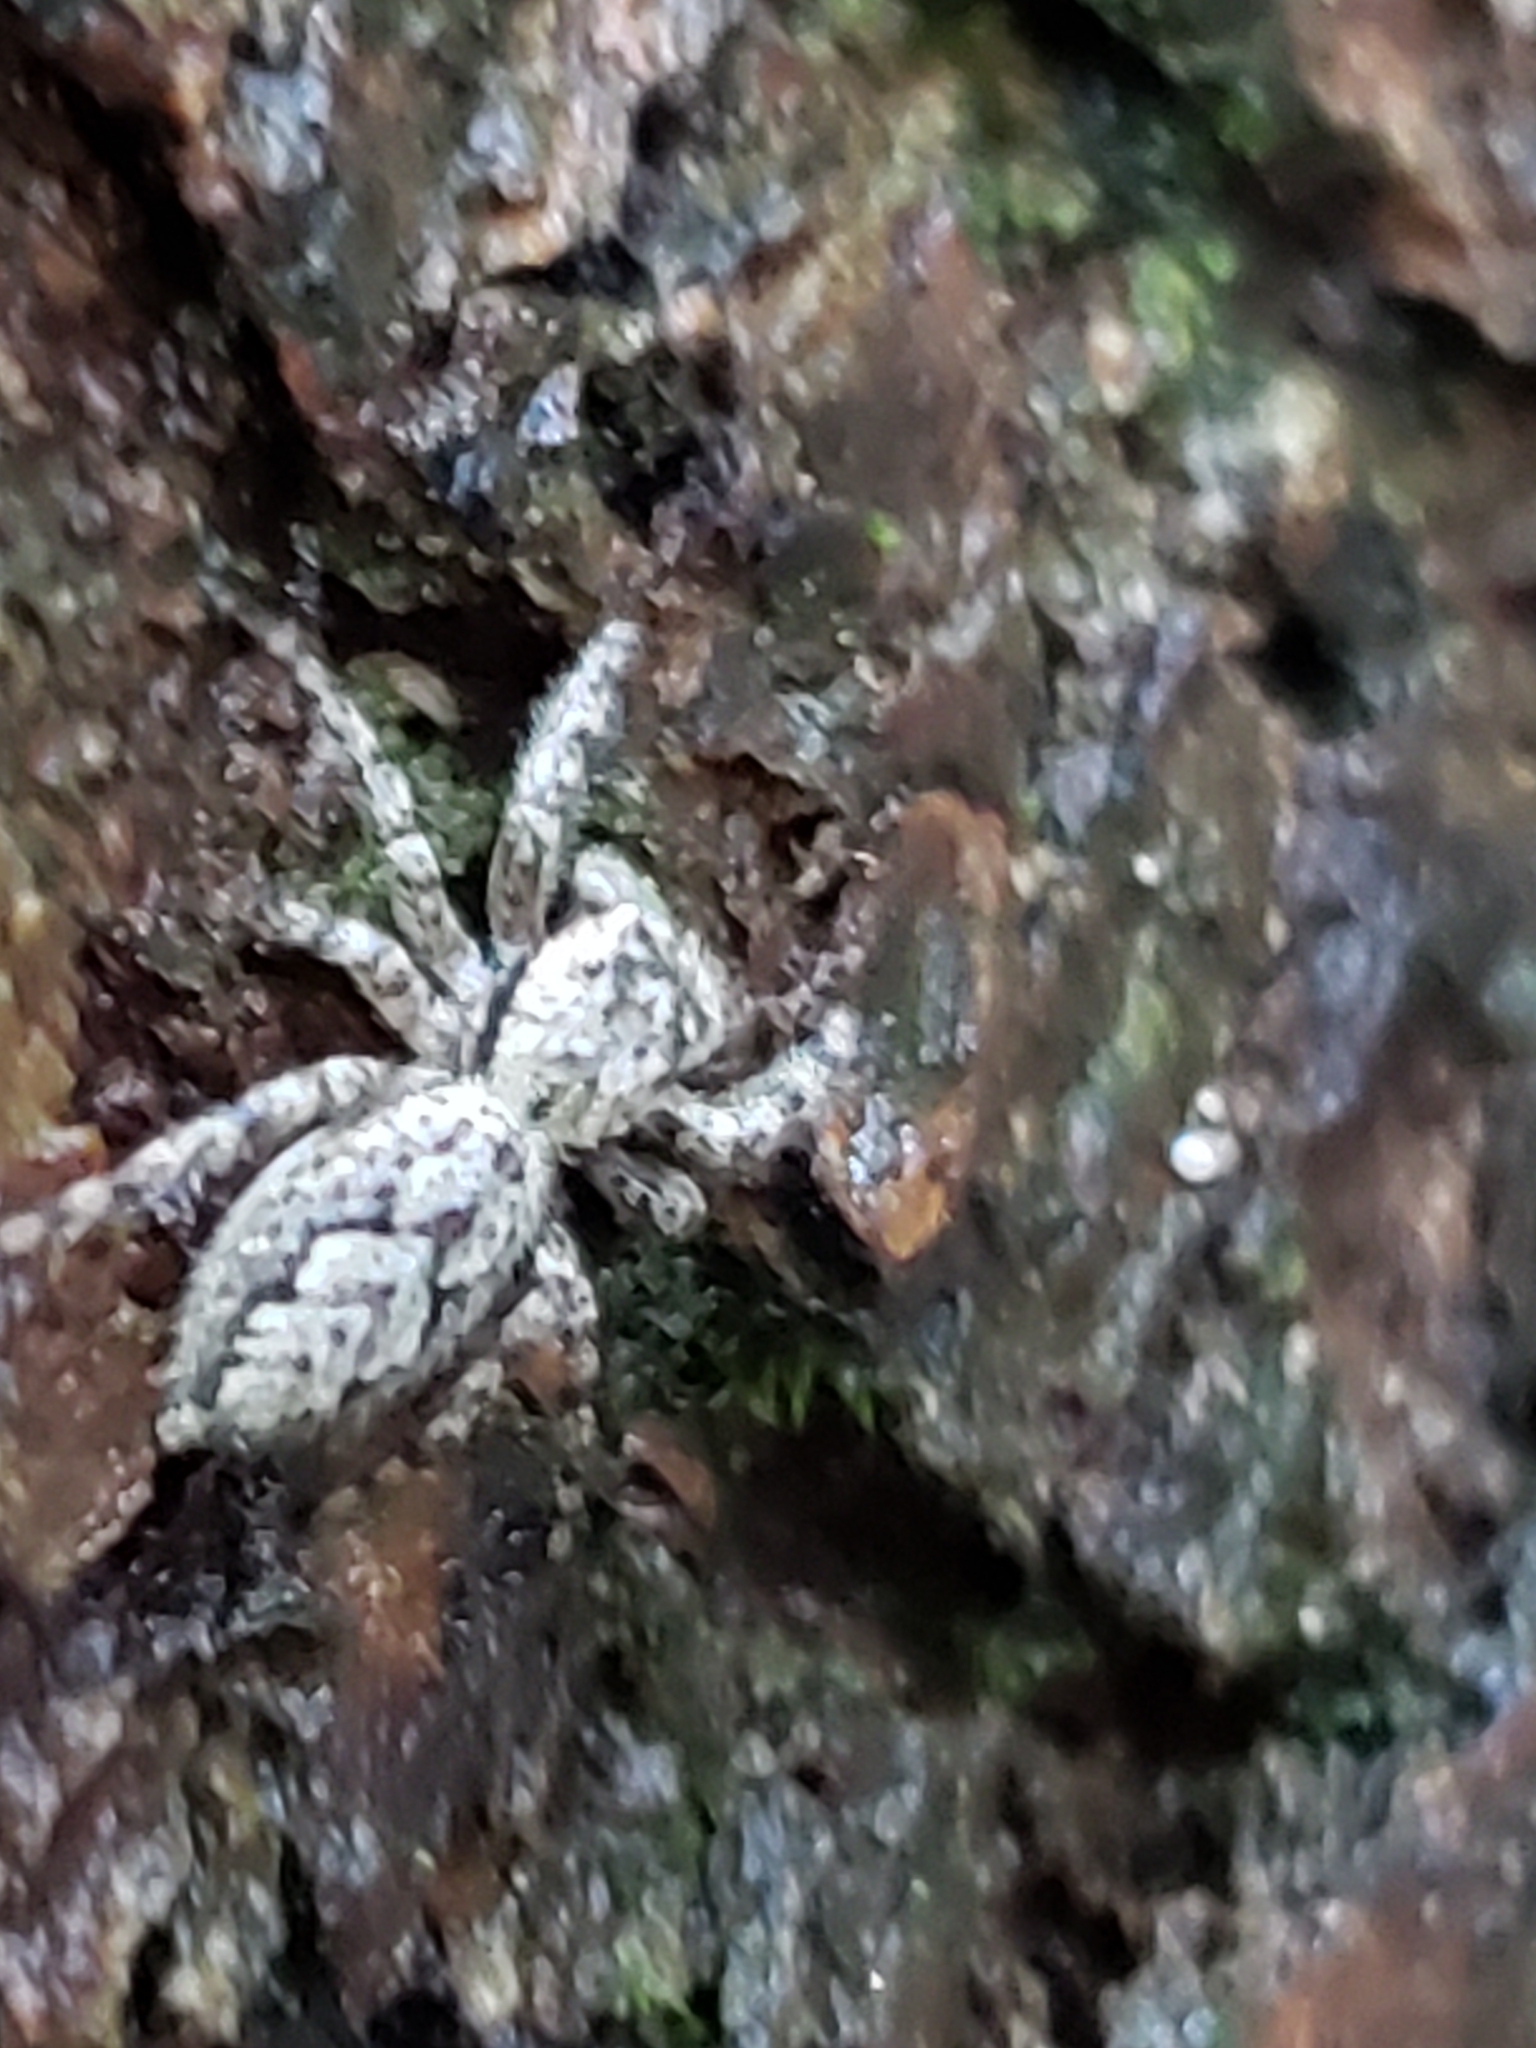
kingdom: Animalia
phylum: Arthropoda
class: Arachnida
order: Araneae
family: Salticidae
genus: Platycryptus
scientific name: Platycryptus undatus
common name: Tan jumping spider
